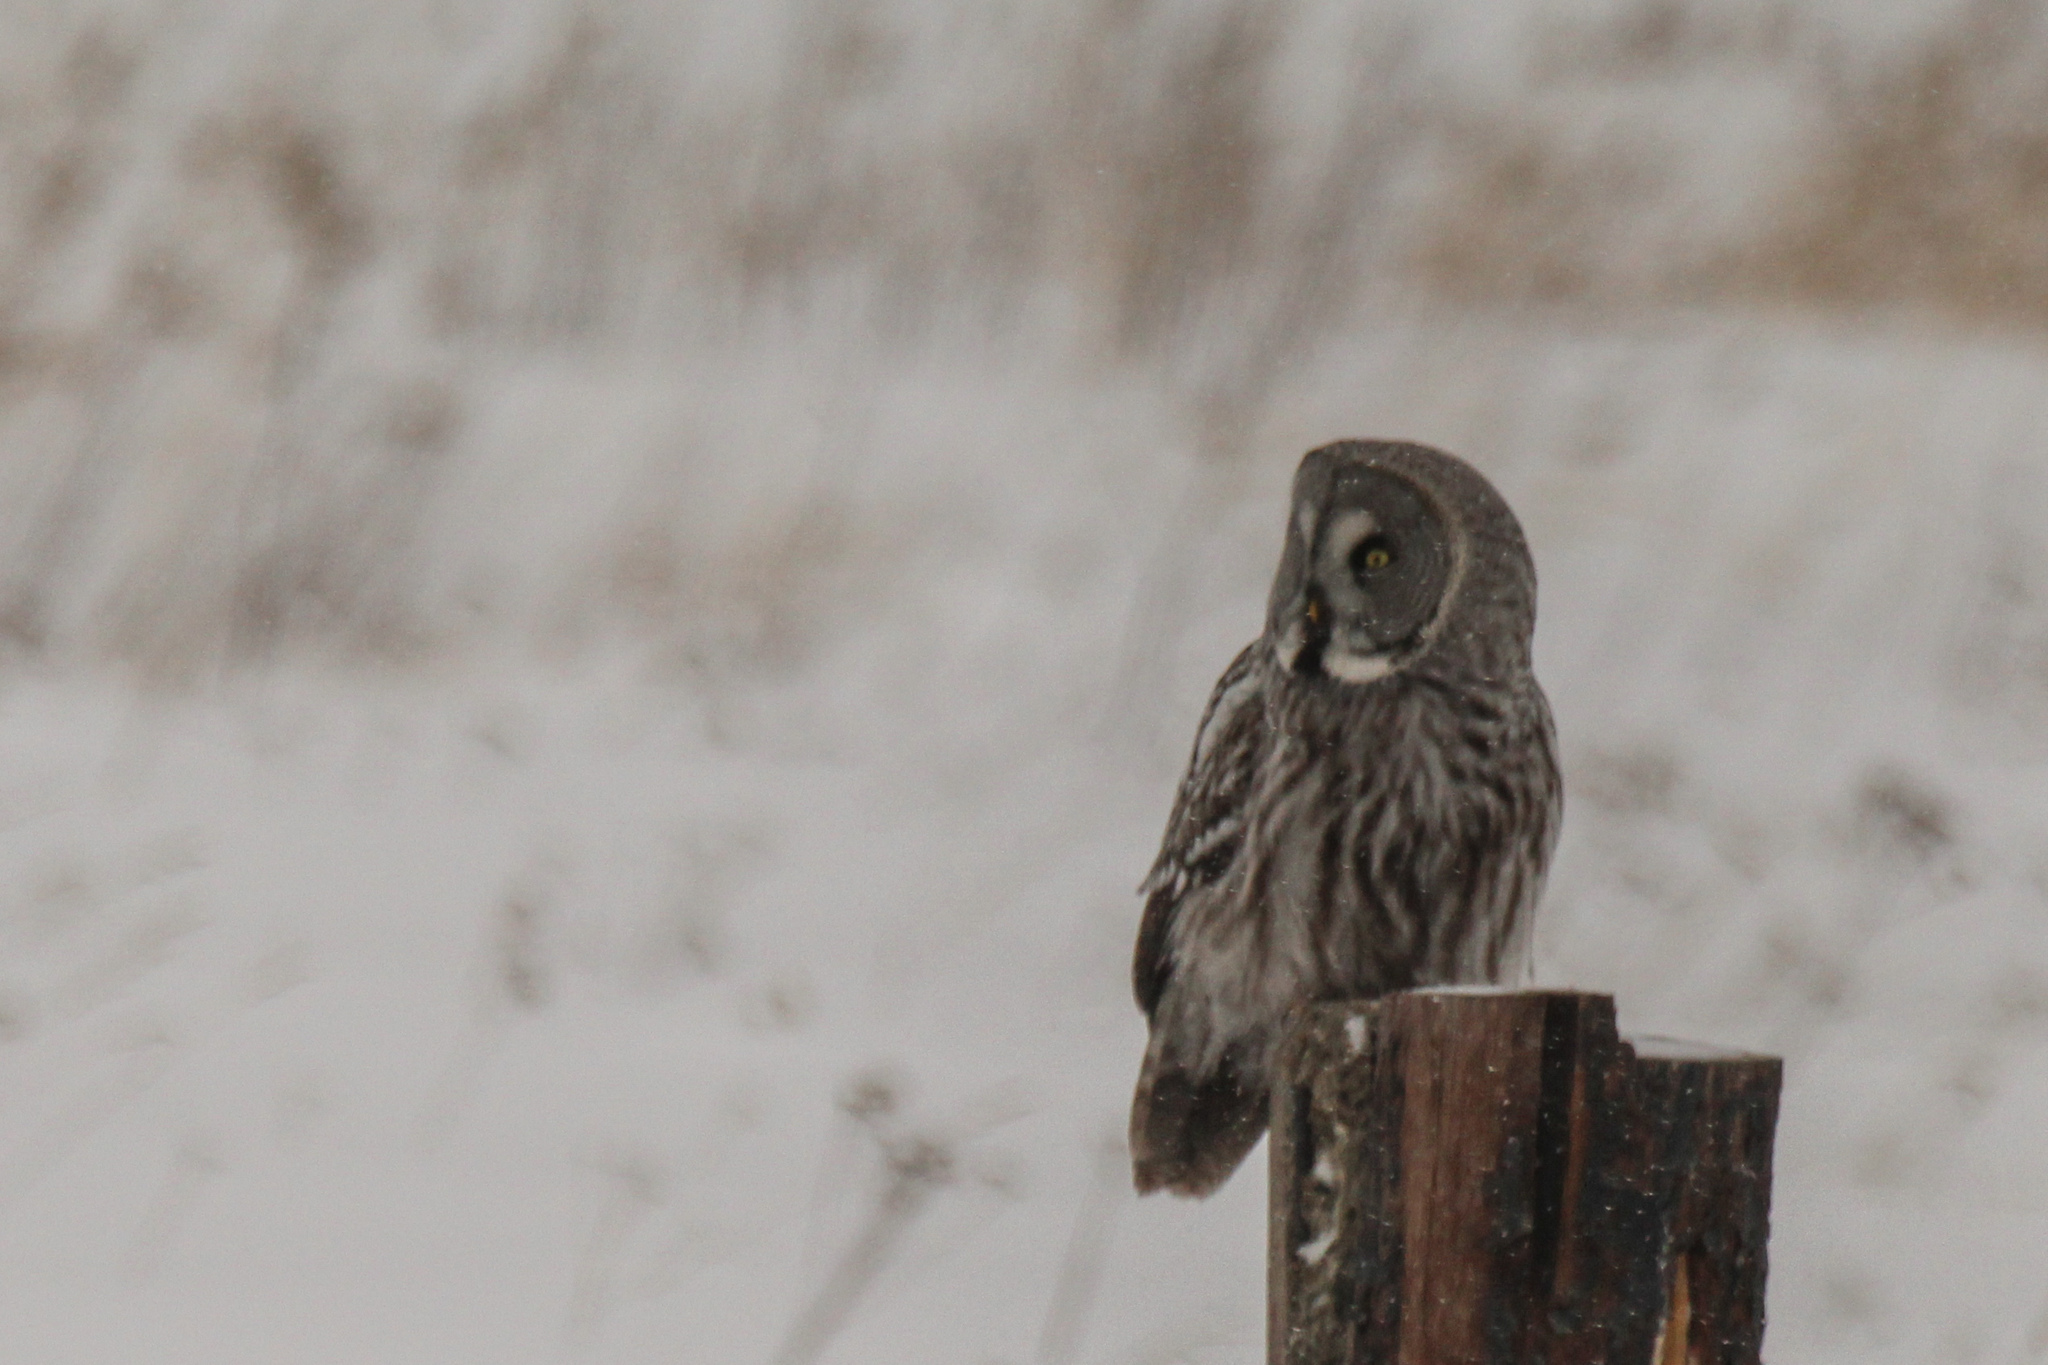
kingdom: Animalia
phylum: Chordata
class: Aves
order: Strigiformes
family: Strigidae
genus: Strix
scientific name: Strix nebulosa
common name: Great grey owl
